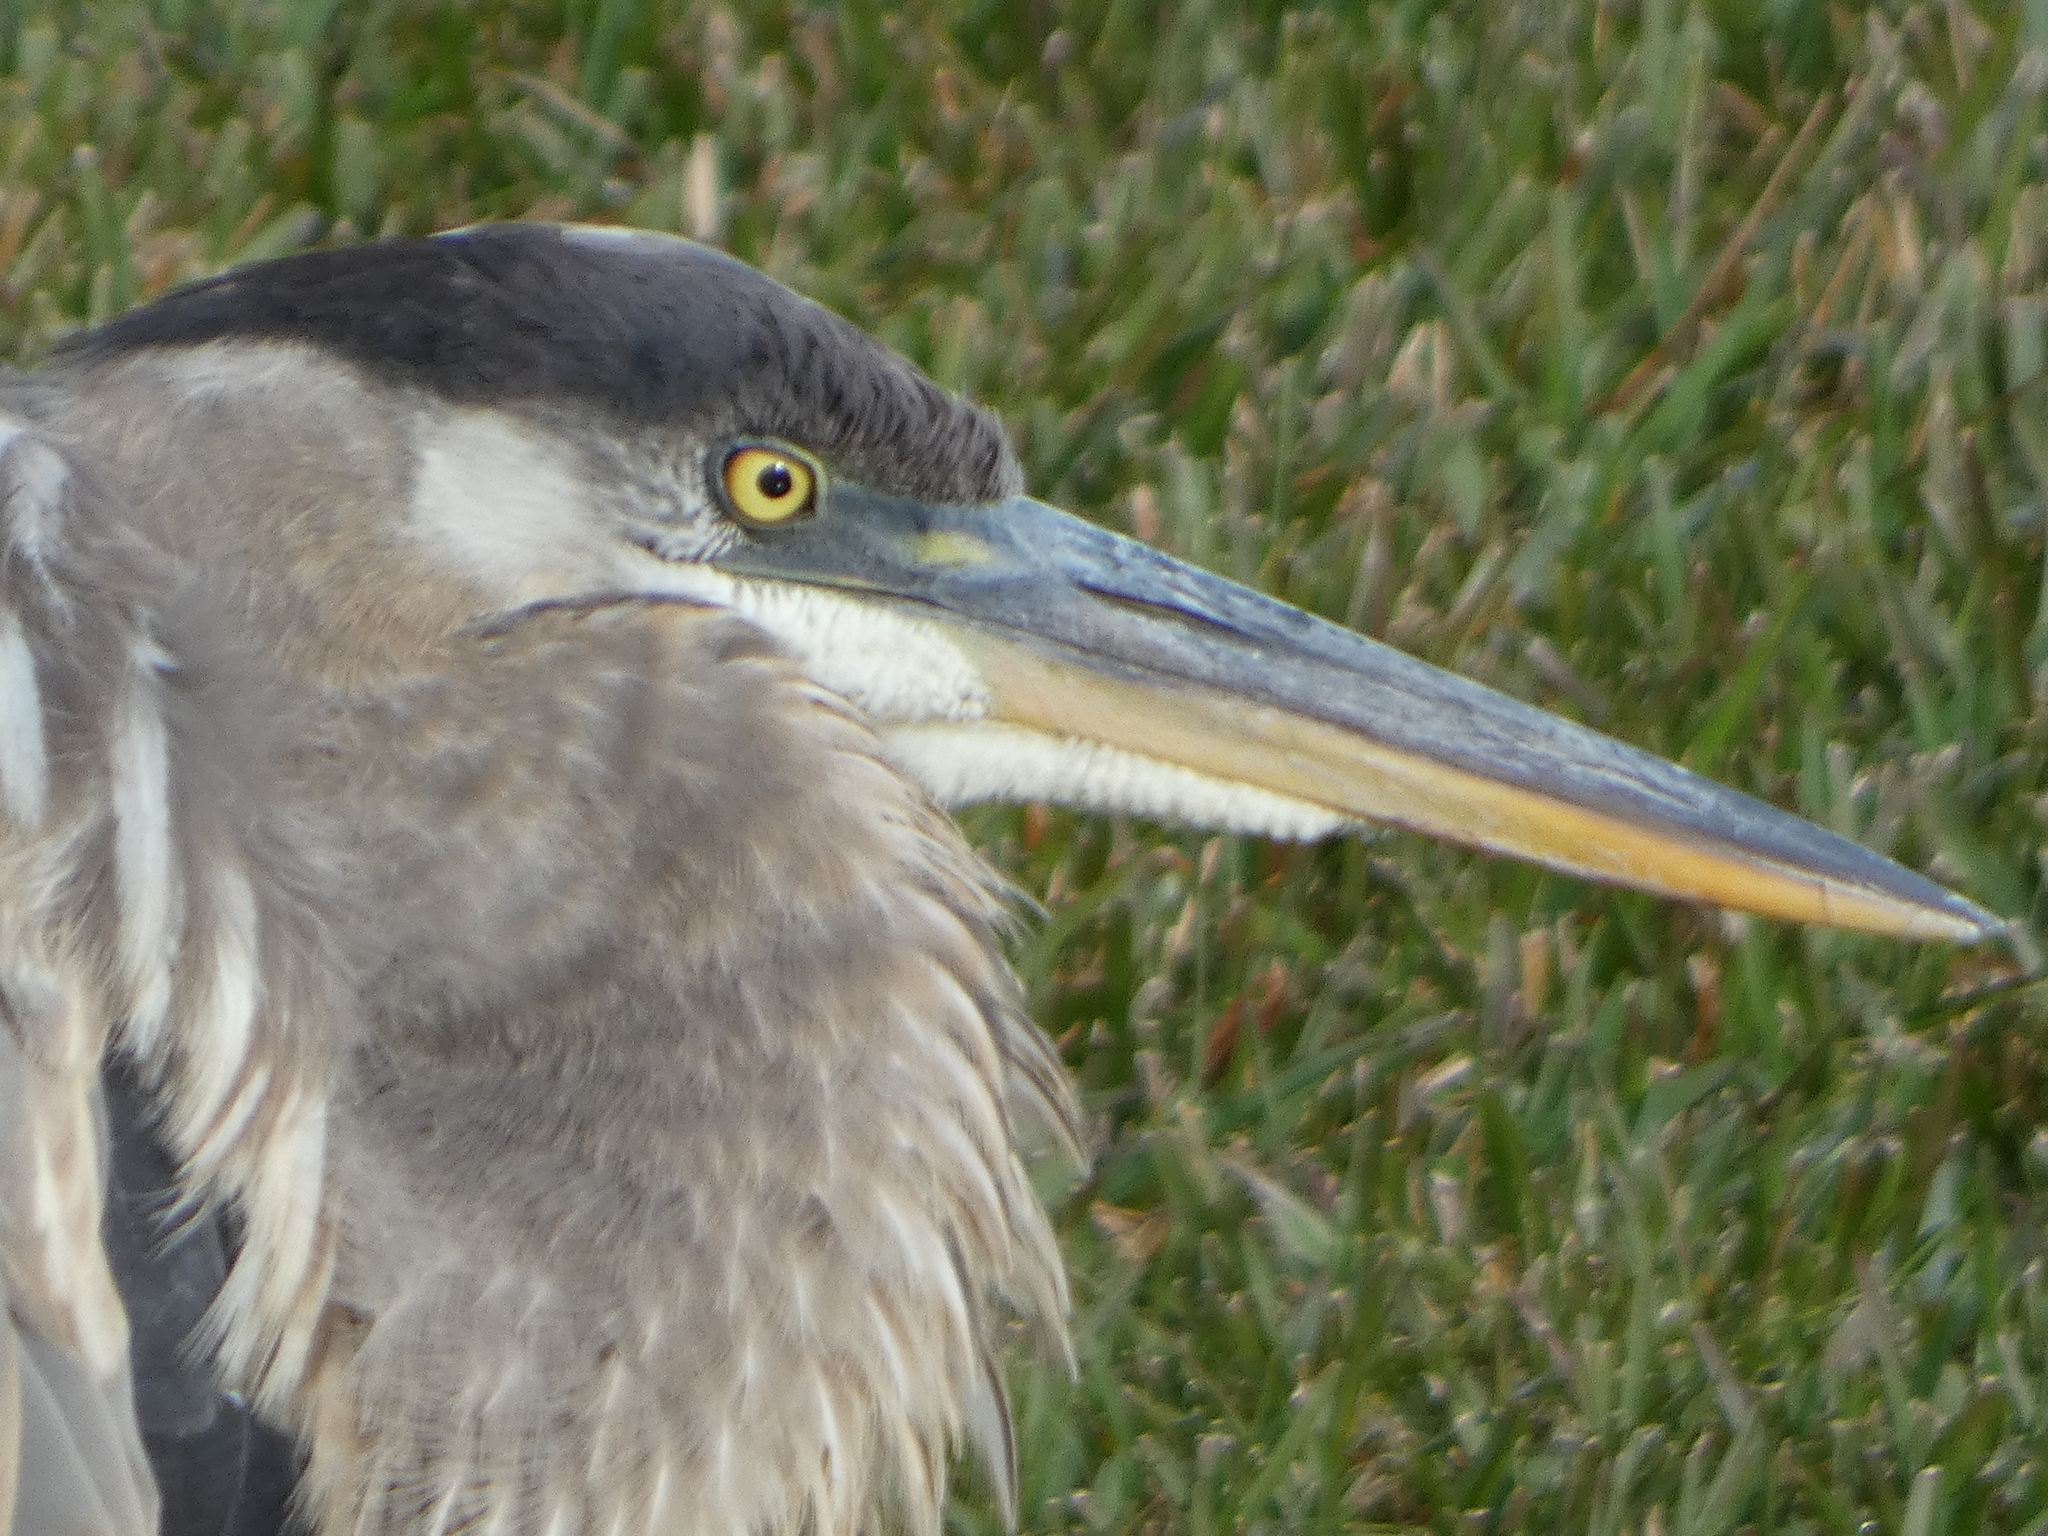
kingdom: Animalia
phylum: Chordata
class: Aves
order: Pelecaniformes
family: Ardeidae
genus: Ardea
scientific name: Ardea herodias
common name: Great blue heron
